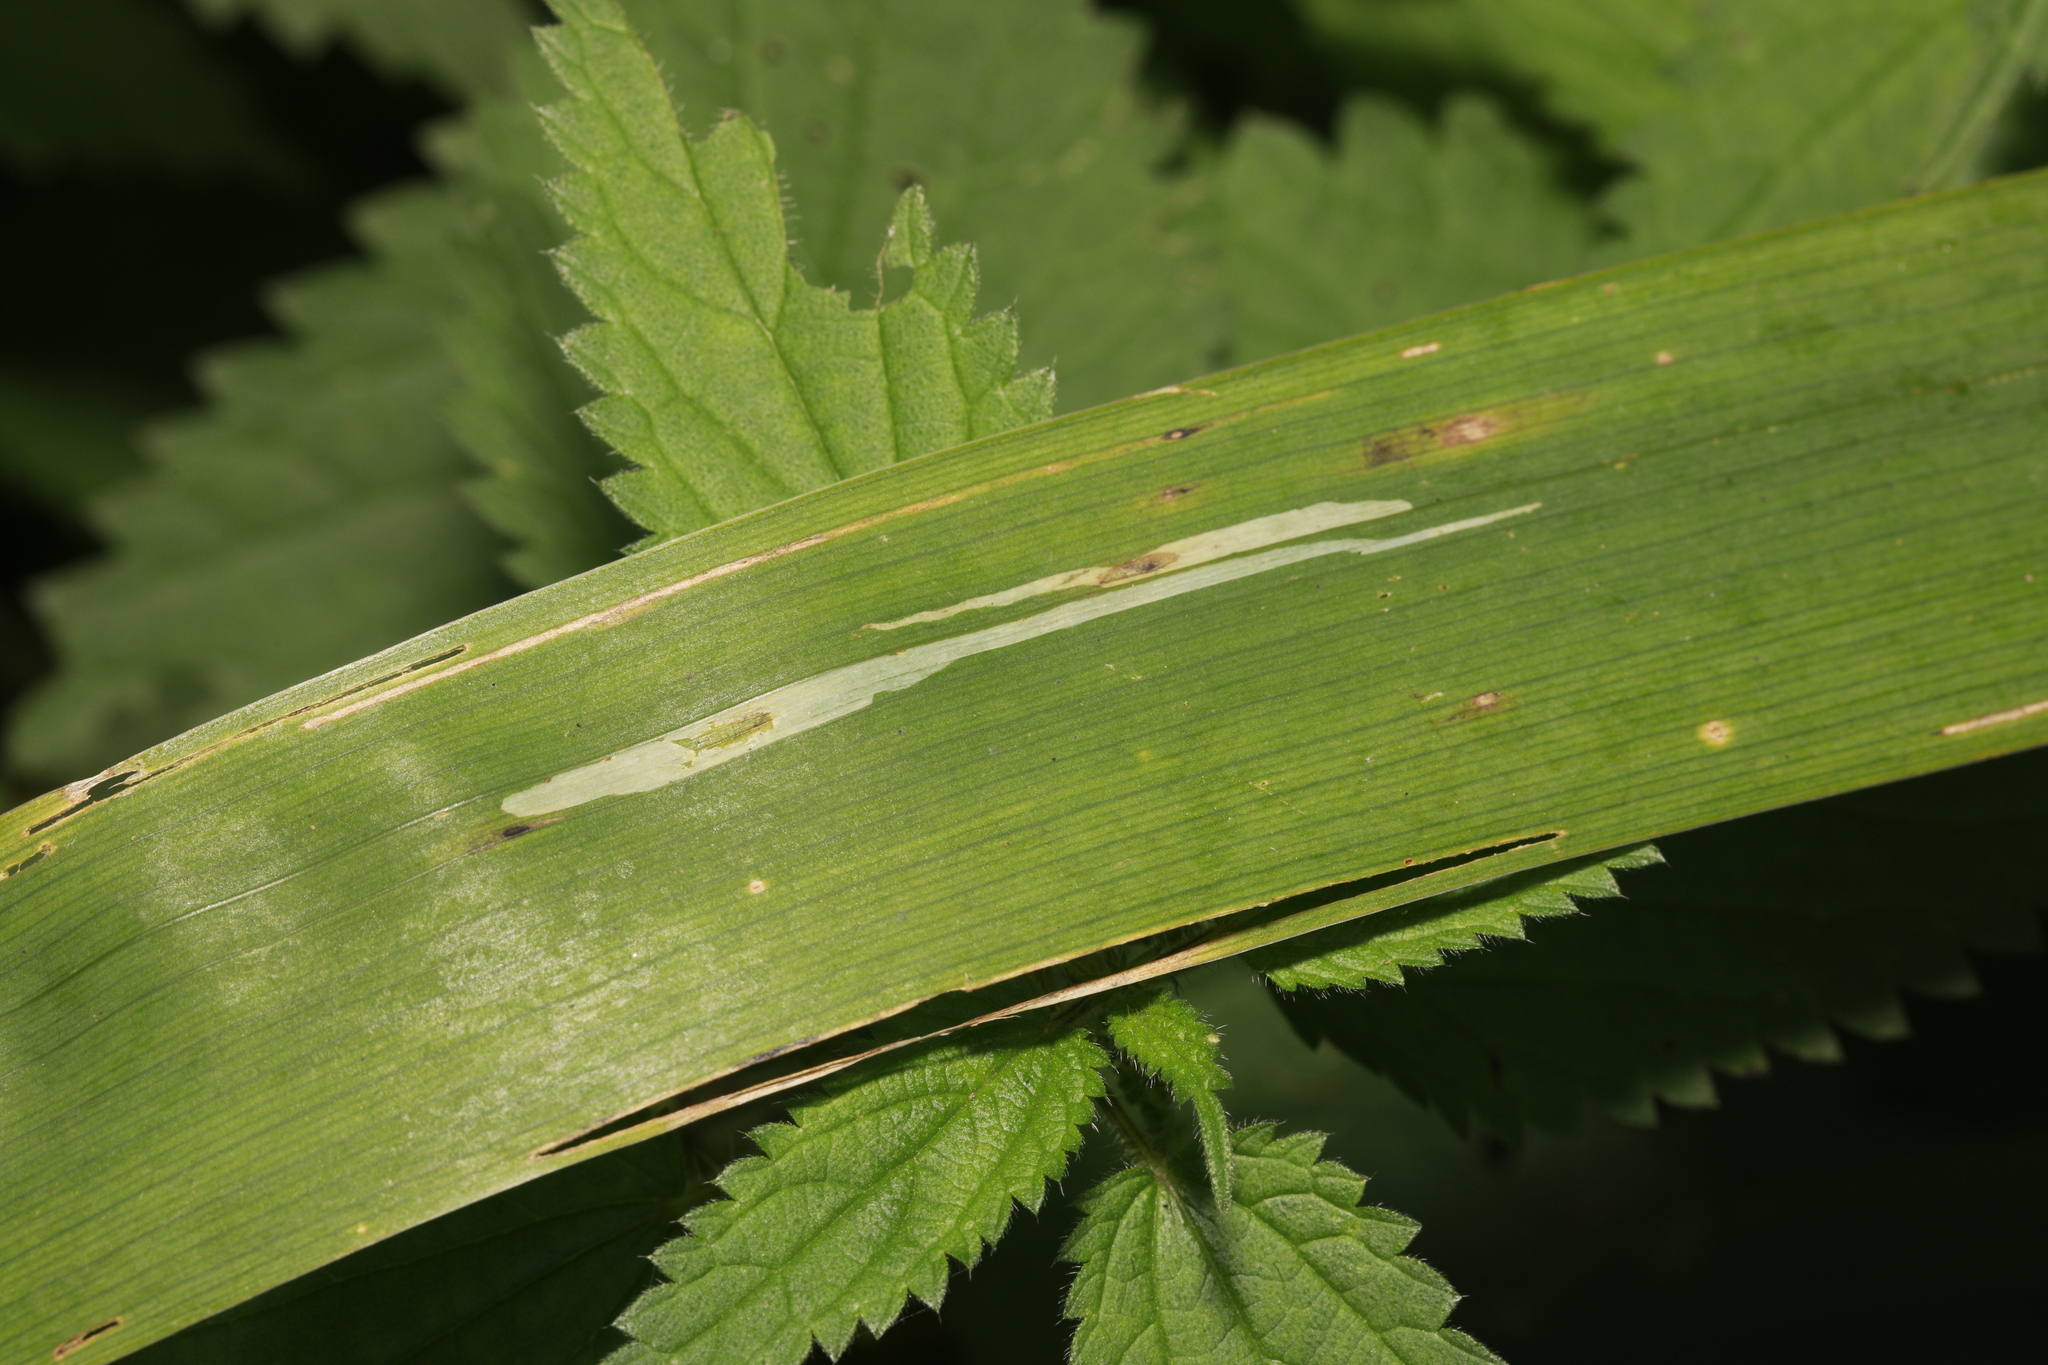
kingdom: Animalia
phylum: Arthropoda
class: Insecta
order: Diptera
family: Agromyzidae
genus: Cerodontha
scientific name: Cerodontha ircos
